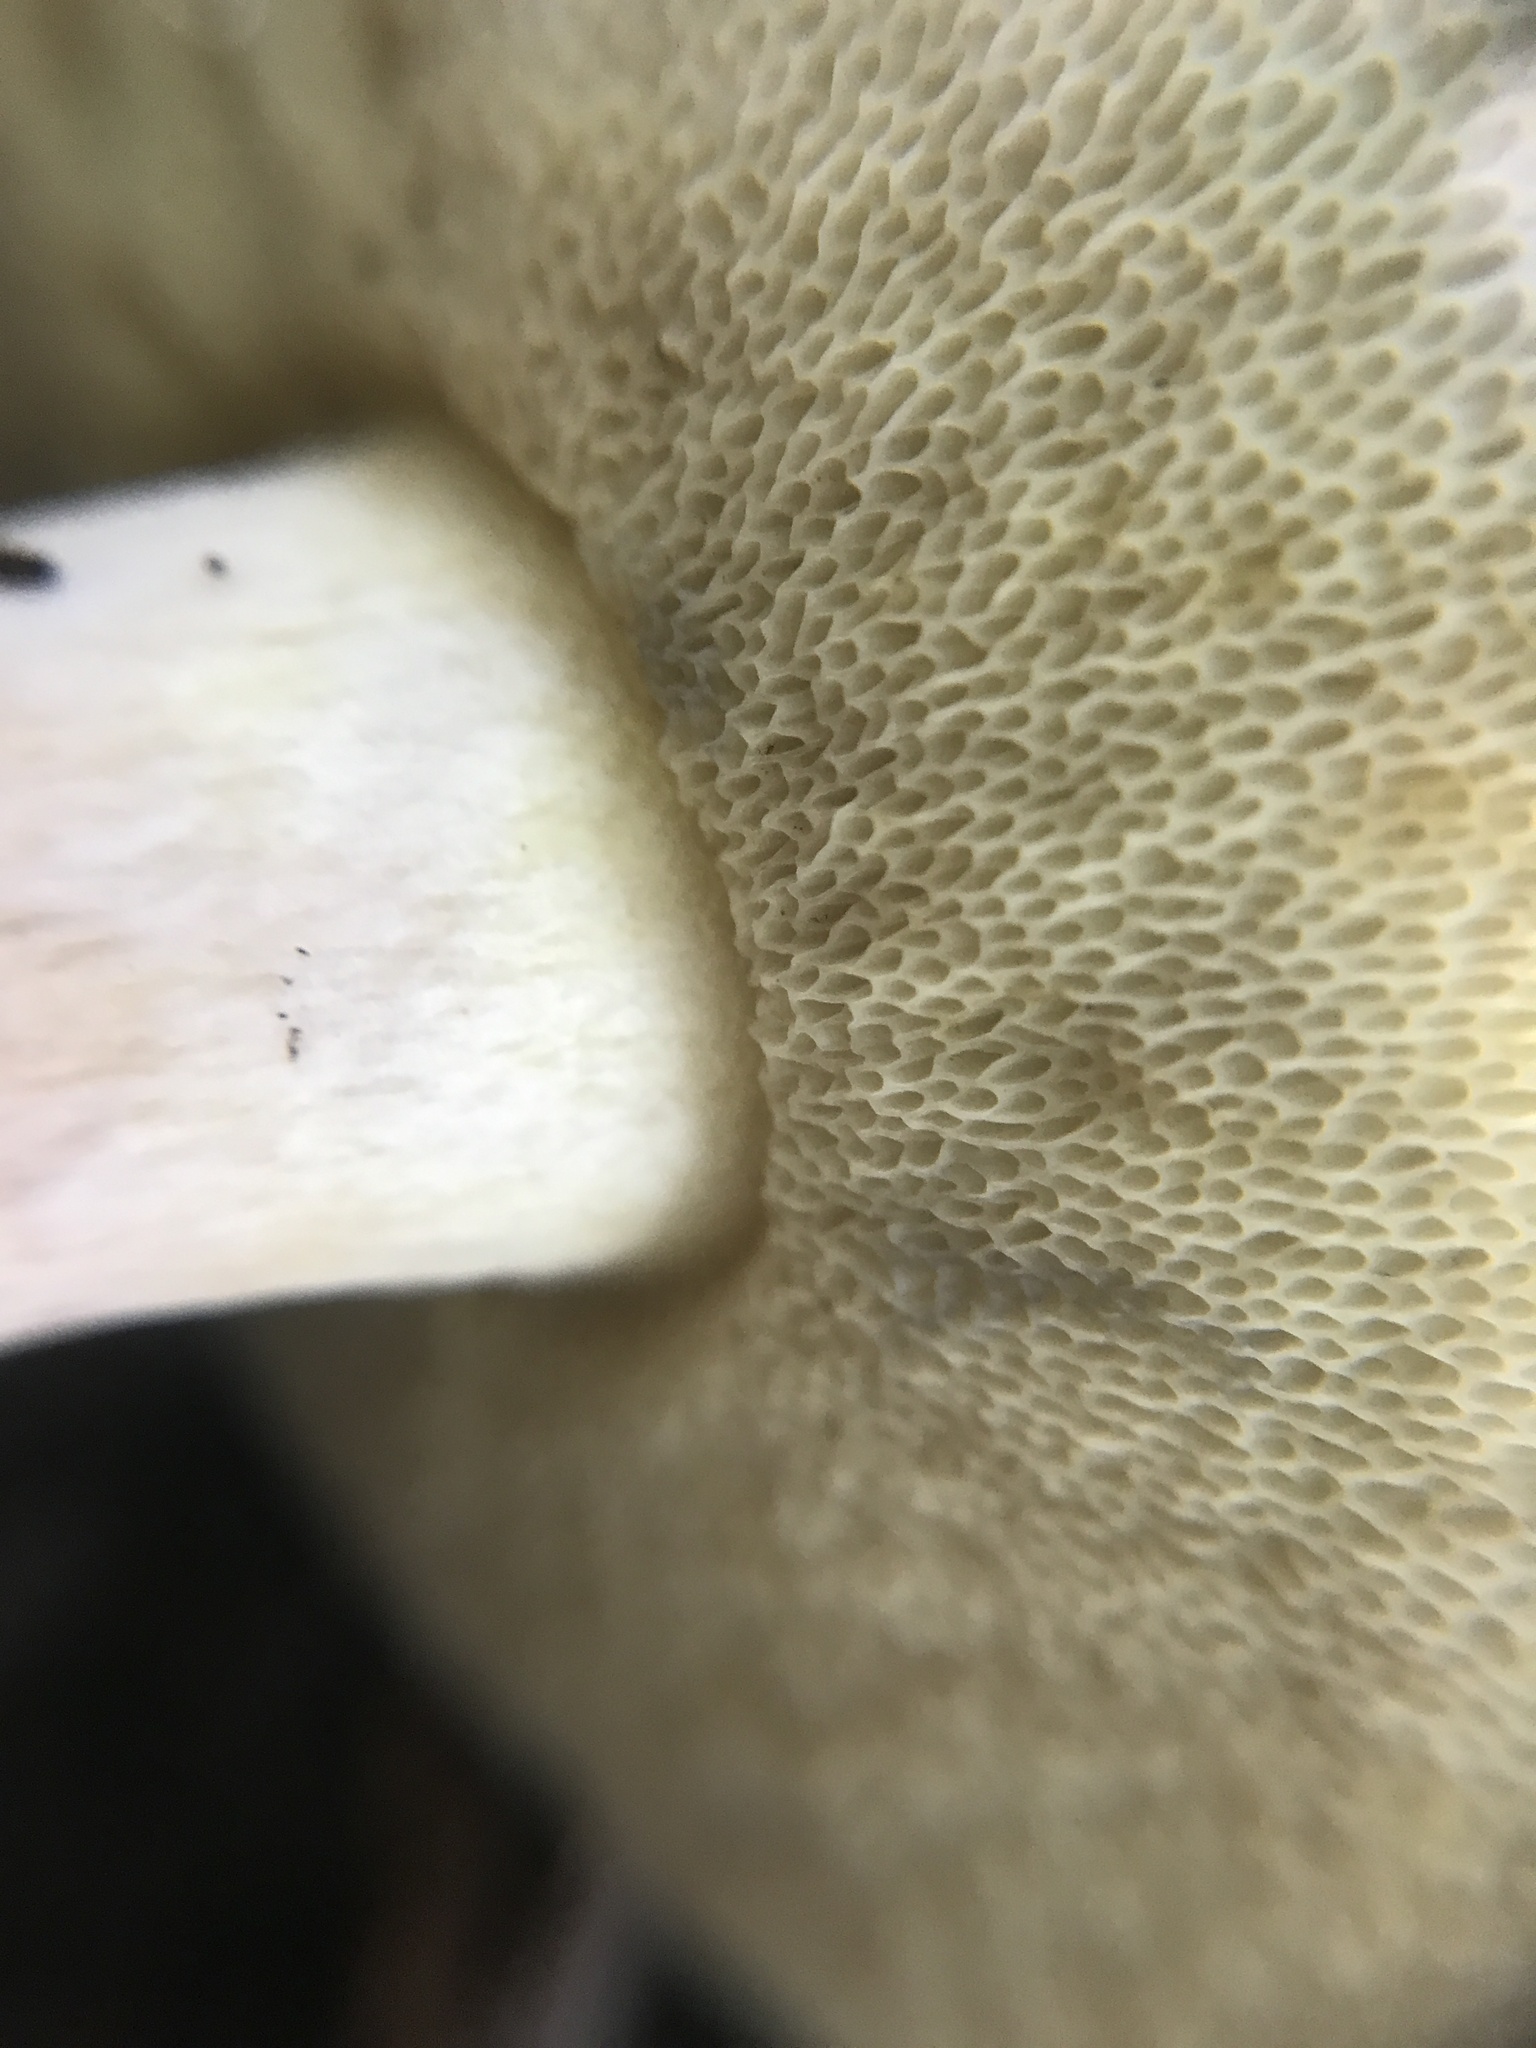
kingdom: Fungi
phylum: Basidiomycota
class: Agaricomycetes
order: Boletales
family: Boletaceae
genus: Imleria
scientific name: Imleria pallida
